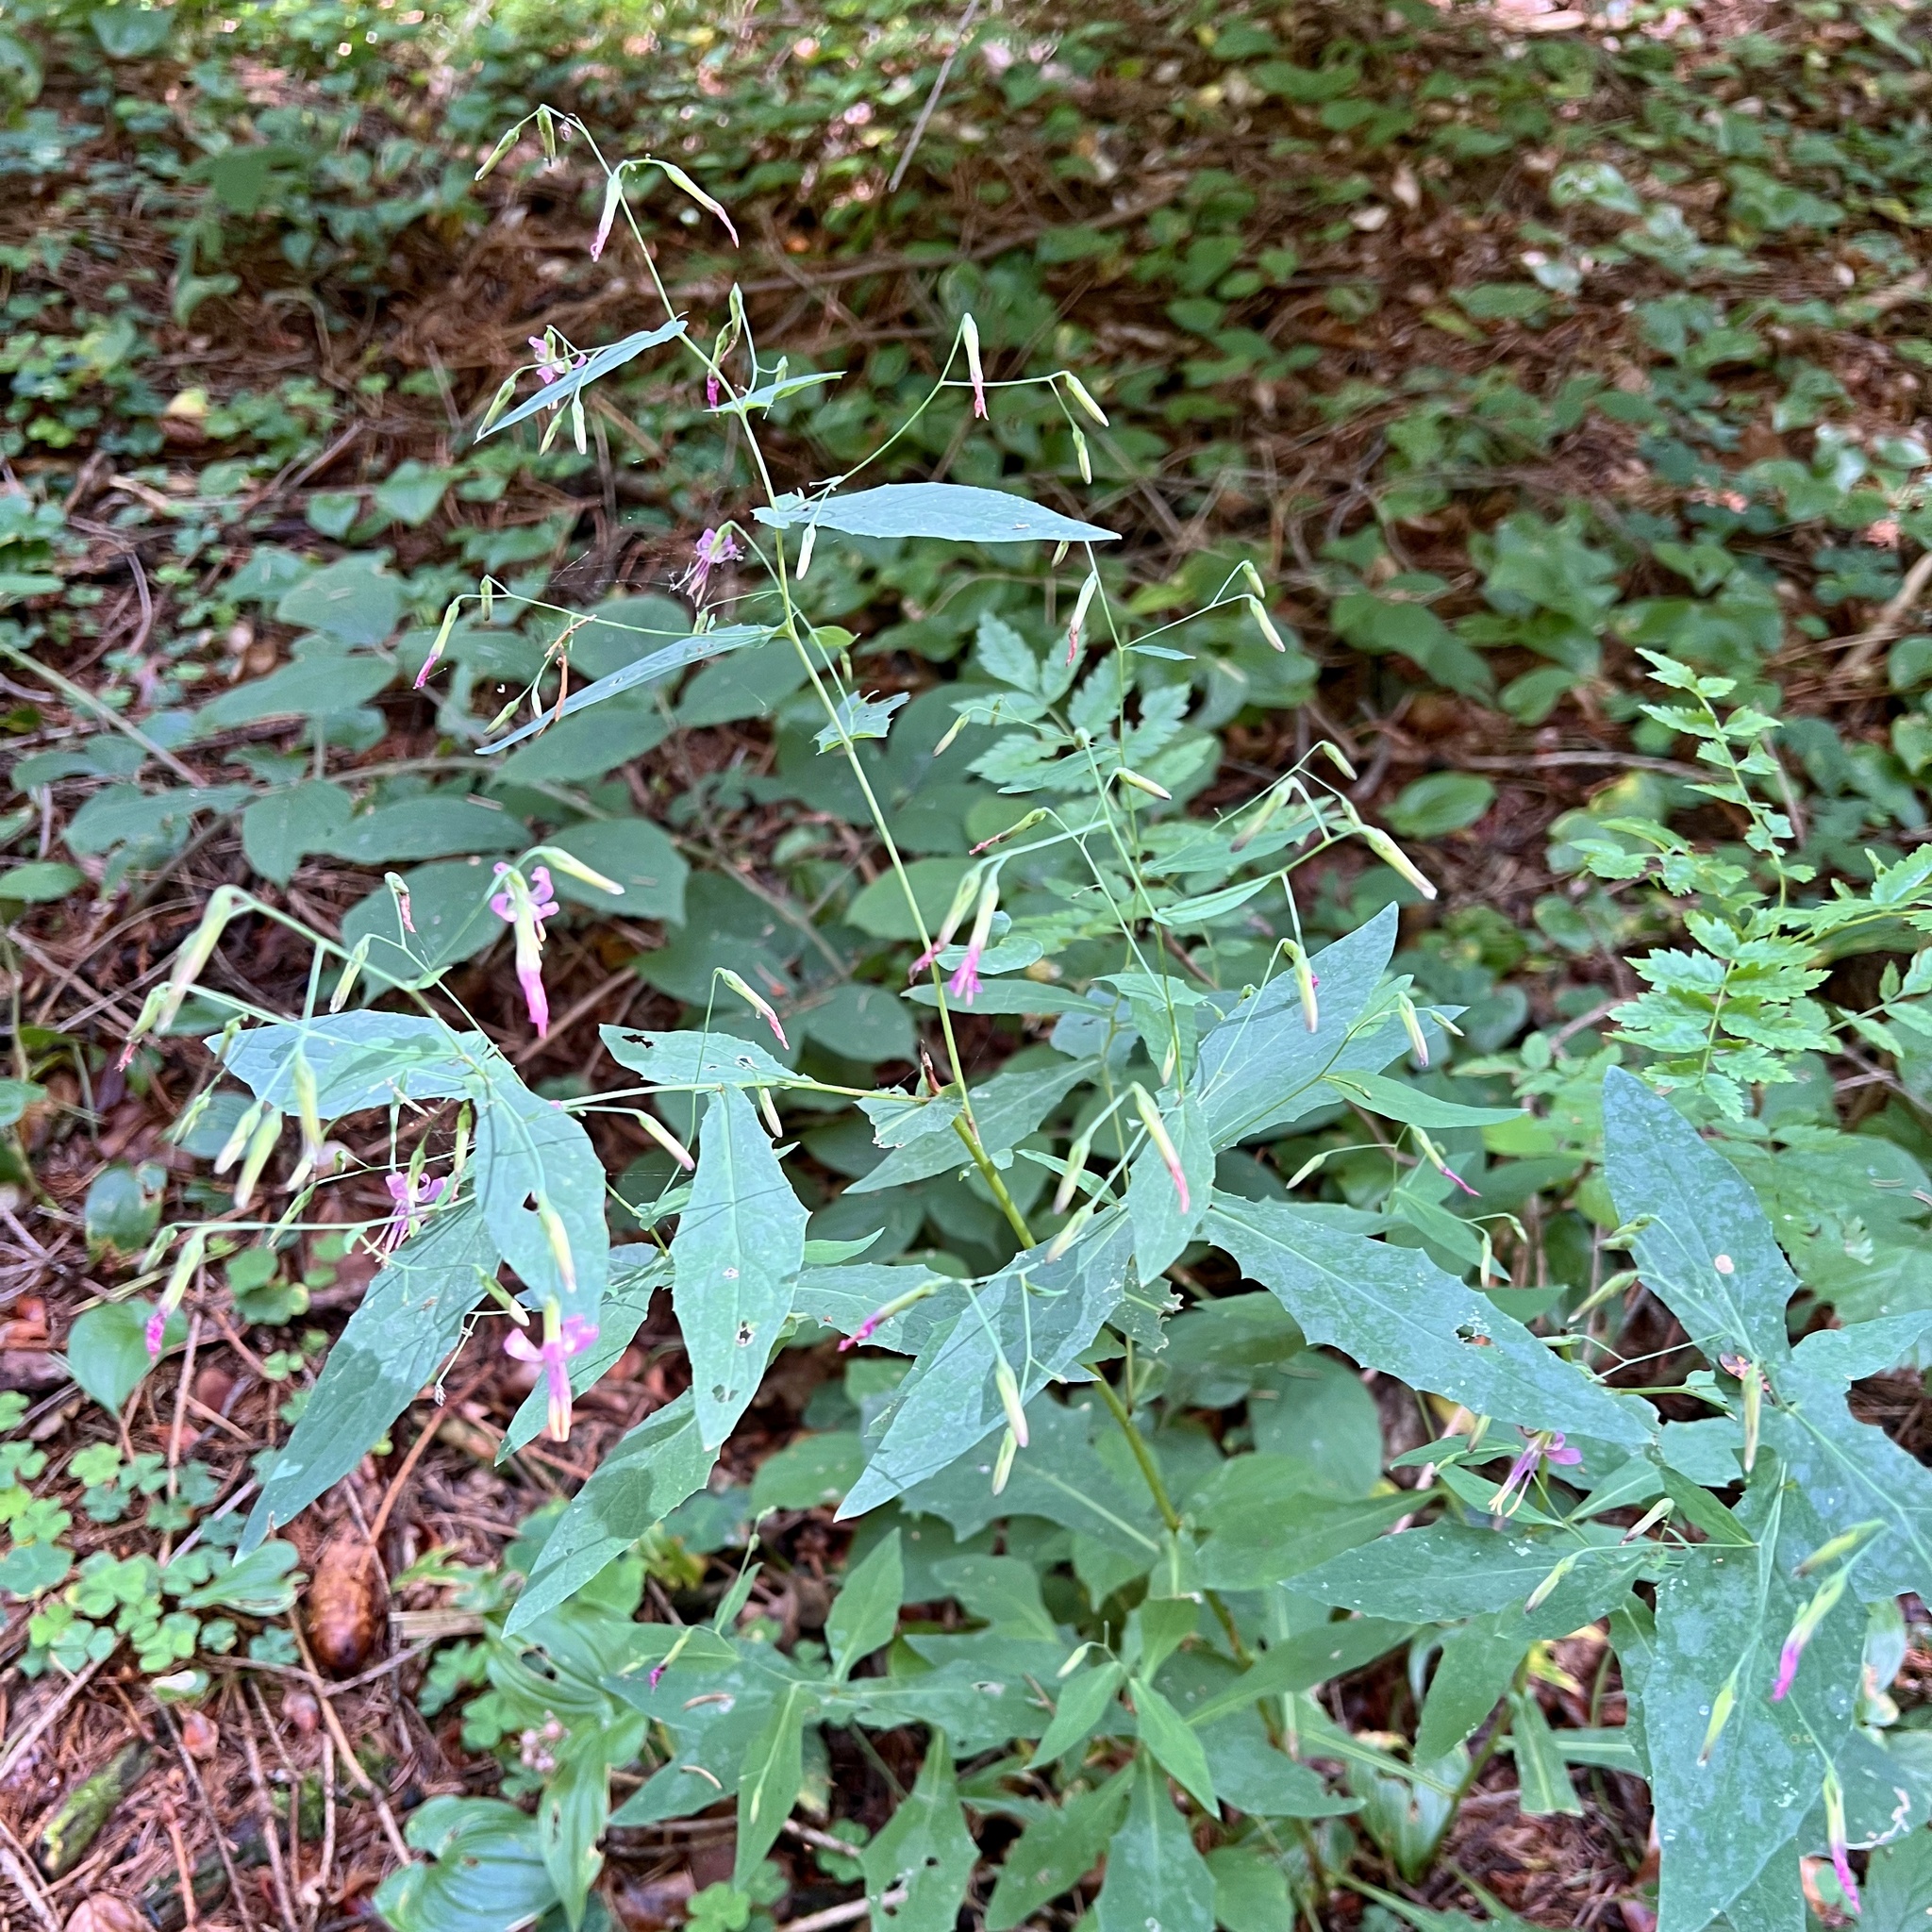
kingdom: Plantae
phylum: Tracheophyta
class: Magnoliopsida
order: Asterales
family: Asteraceae
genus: Prenanthes
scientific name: Prenanthes purpurea
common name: Purple lettuce
